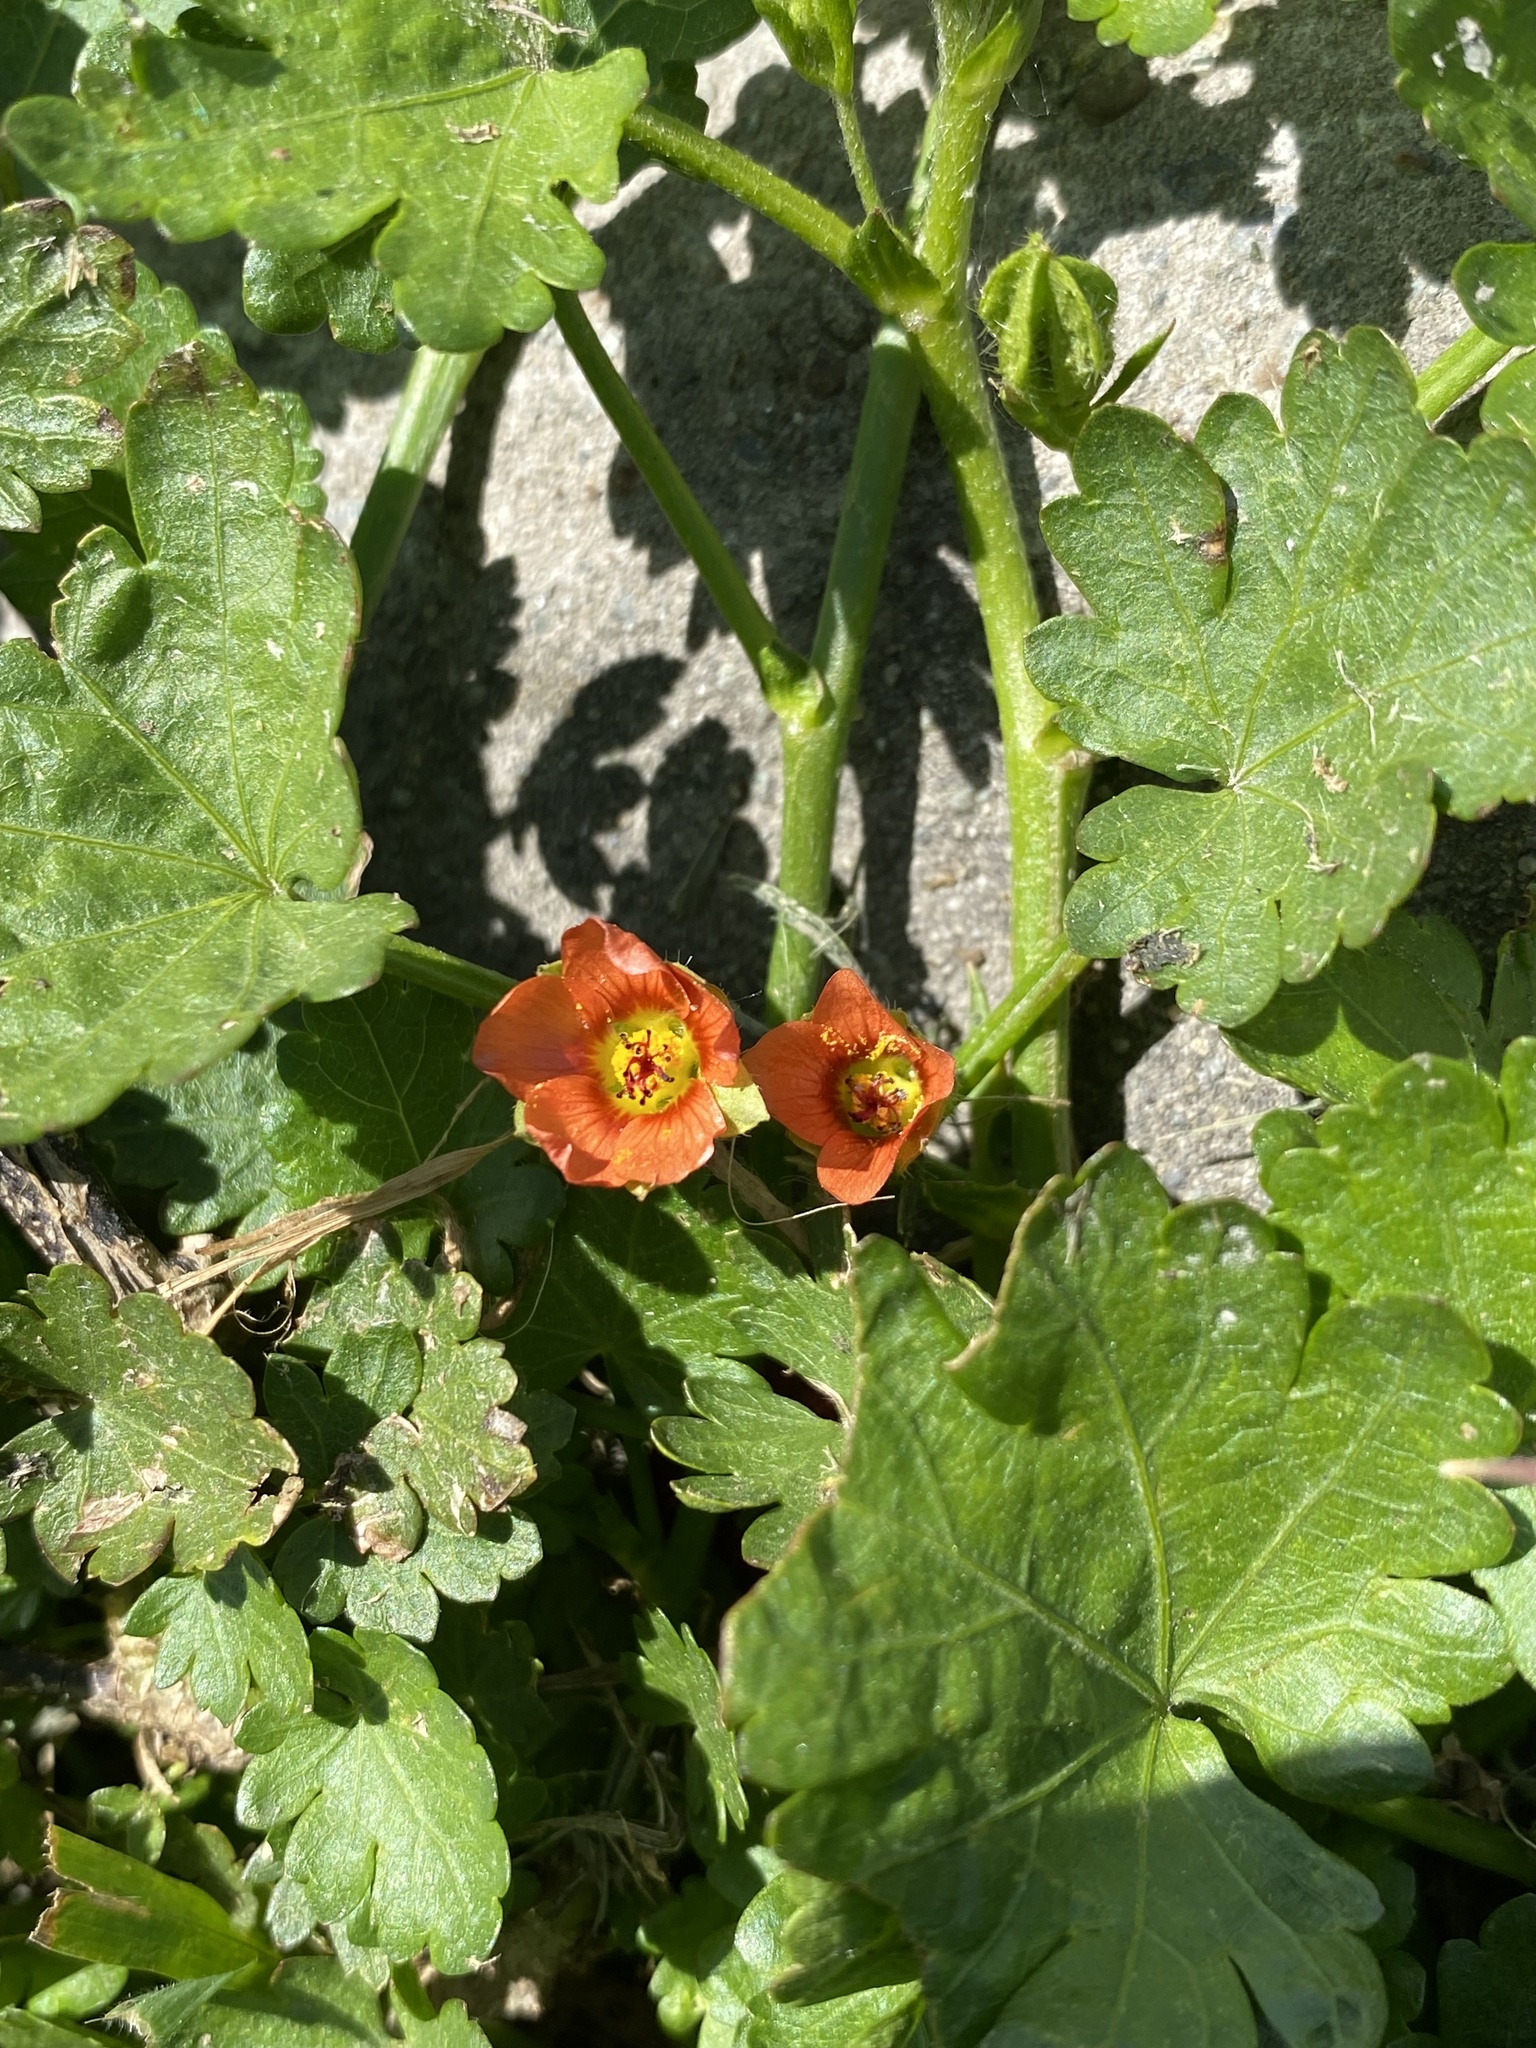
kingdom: Plantae
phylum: Tracheophyta
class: Magnoliopsida
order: Malvales
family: Malvaceae
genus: Modiola
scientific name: Modiola caroliniana
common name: Carolina bristlemallow
